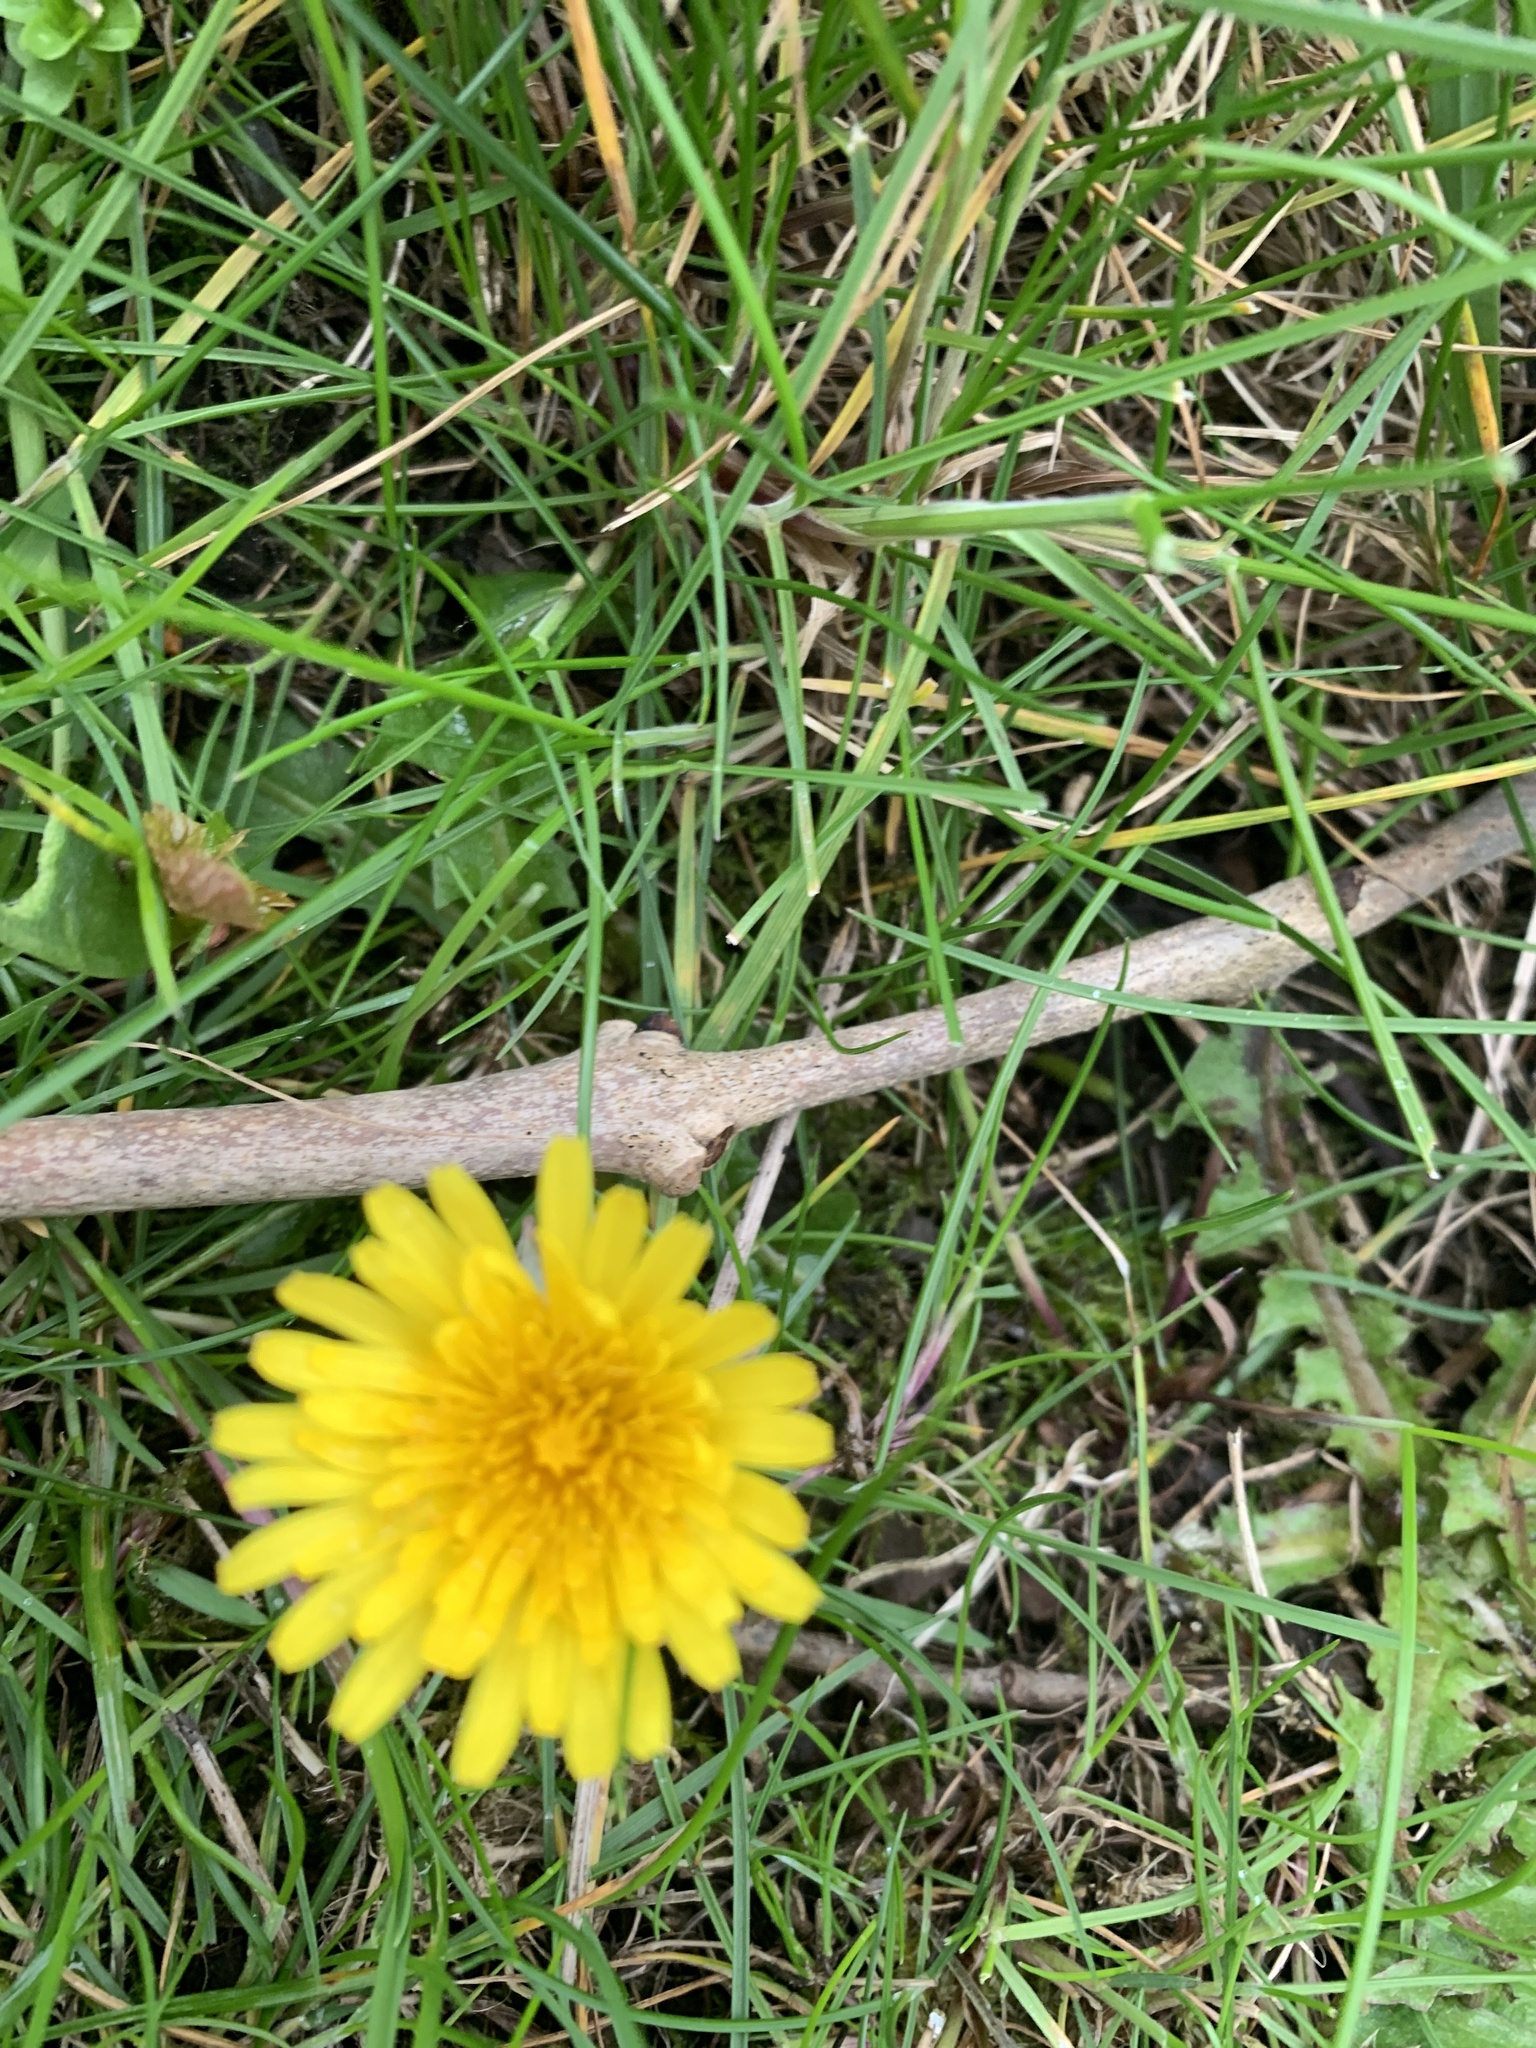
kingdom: Plantae
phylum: Tracheophyta
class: Magnoliopsida
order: Asterales
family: Asteraceae
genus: Taraxacum
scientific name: Taraxacum officinale
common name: Common dandelion
